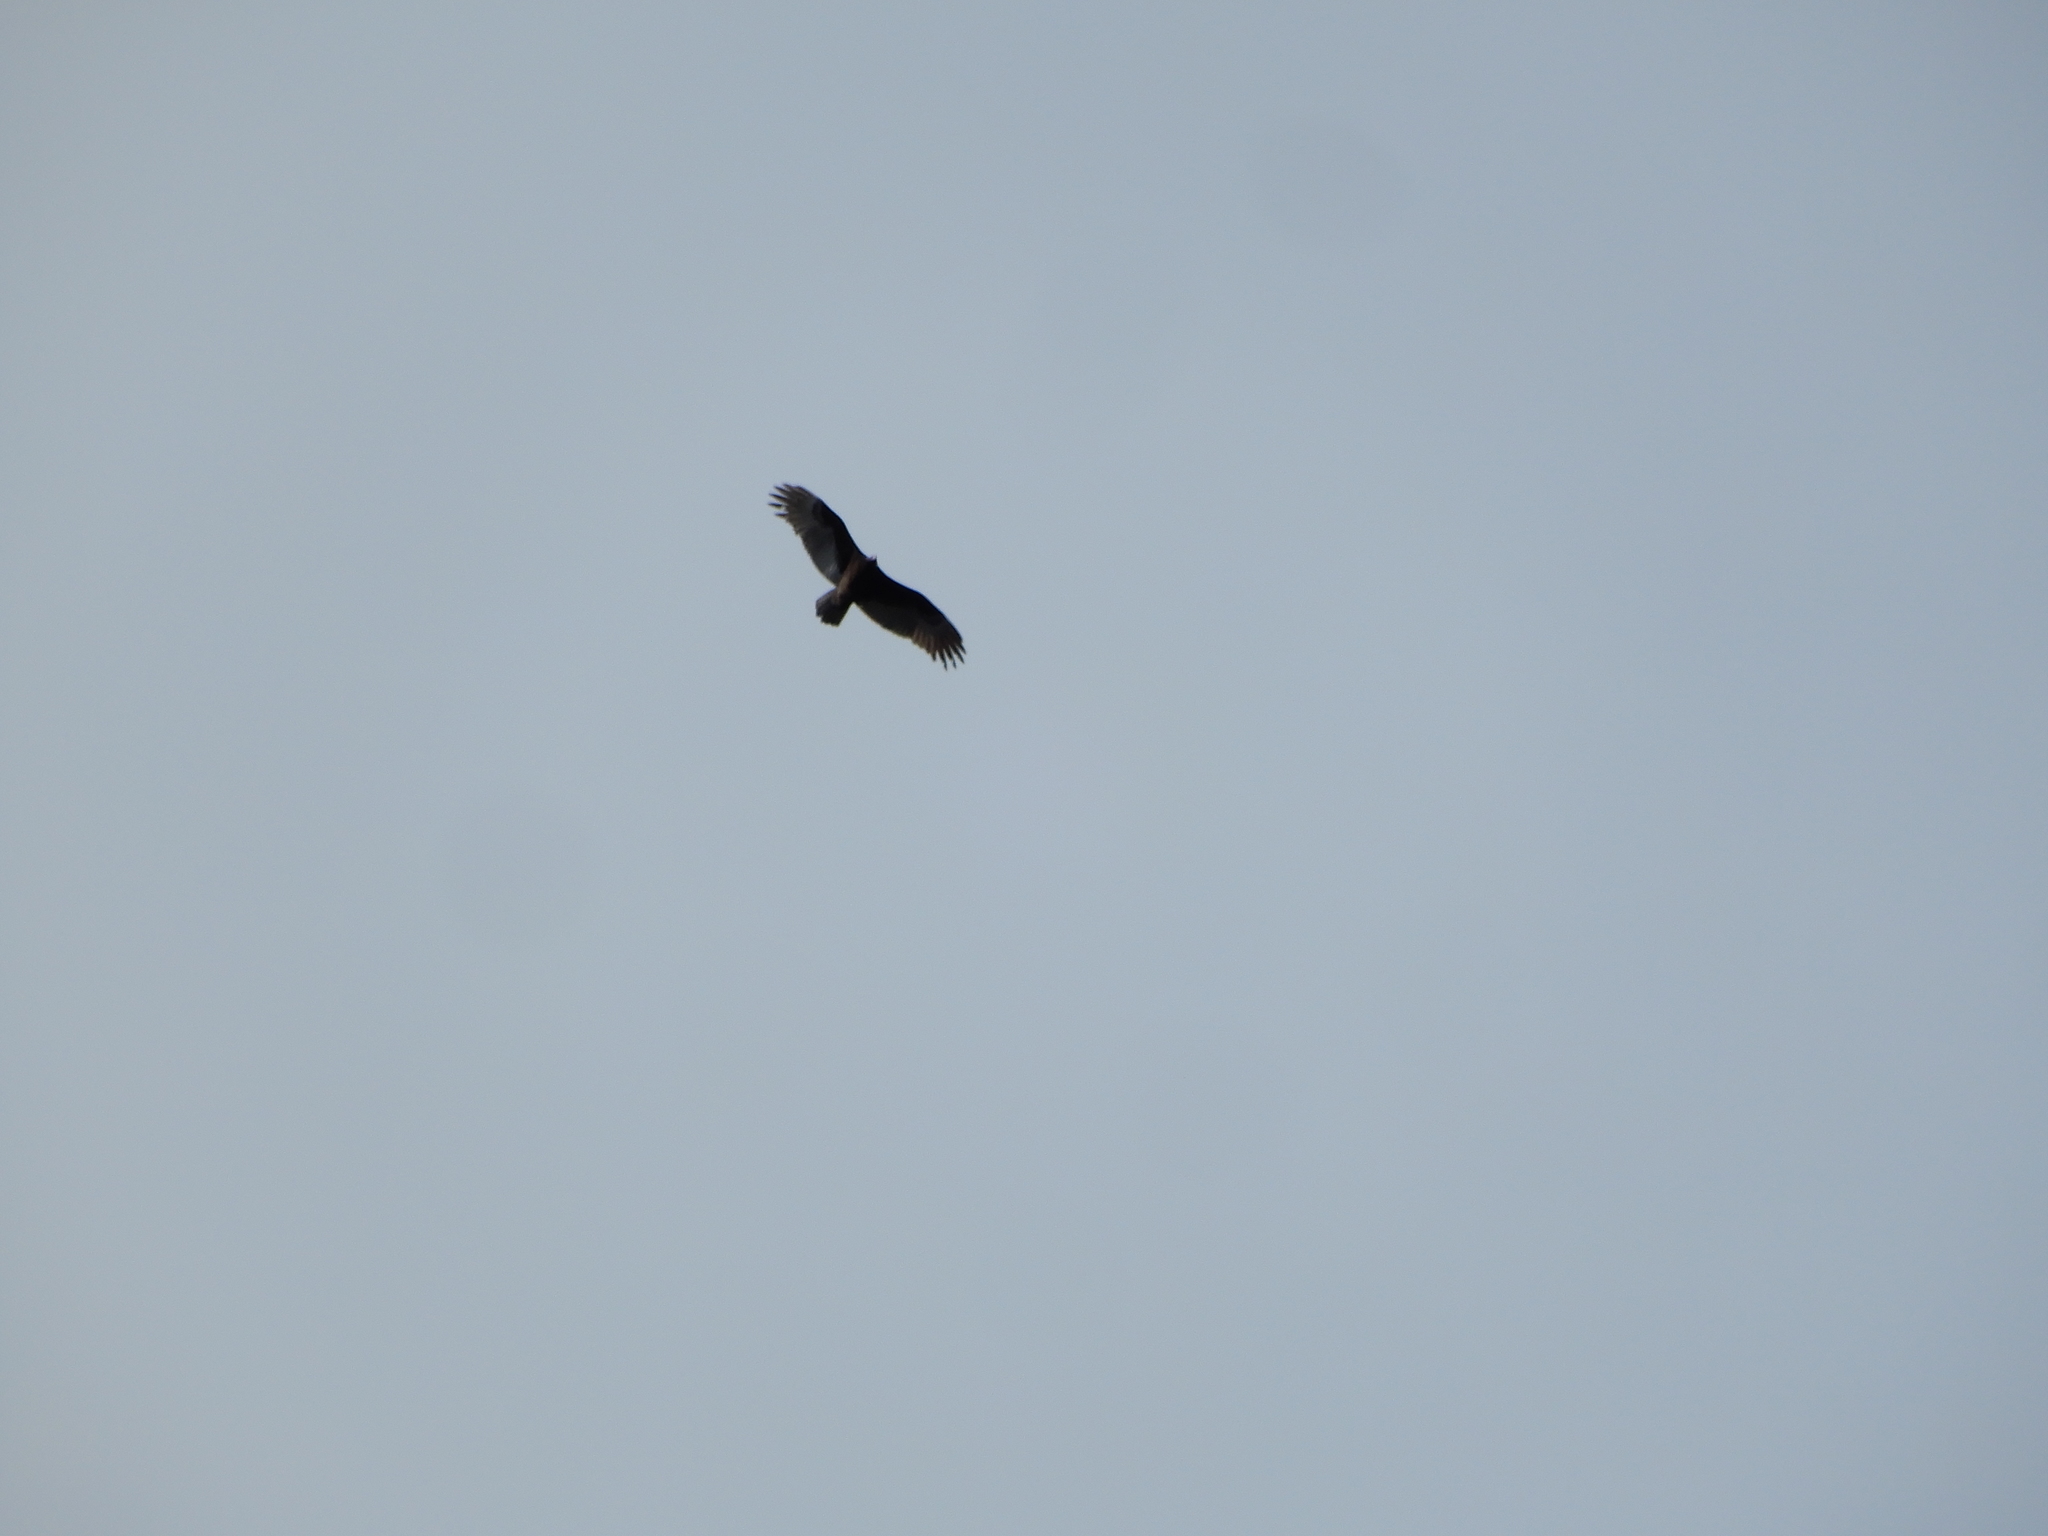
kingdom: Animalia
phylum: Chordata
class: Aves
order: Accipitriformes
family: Cathartidae
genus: Cathartes
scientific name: Cathartes aura
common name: Turkey vulture
